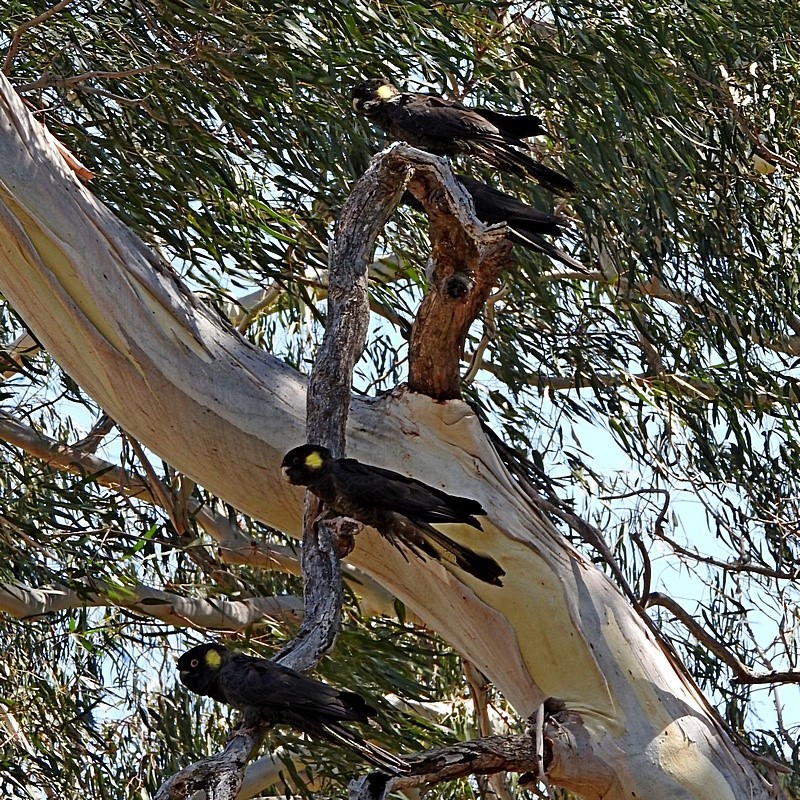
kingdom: Animalia
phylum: Chordata
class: Aves
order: Psittaciformes
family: Cacatuidae
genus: Zanda
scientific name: Zanda funerea
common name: Yellow-tailed black-cockatoo
